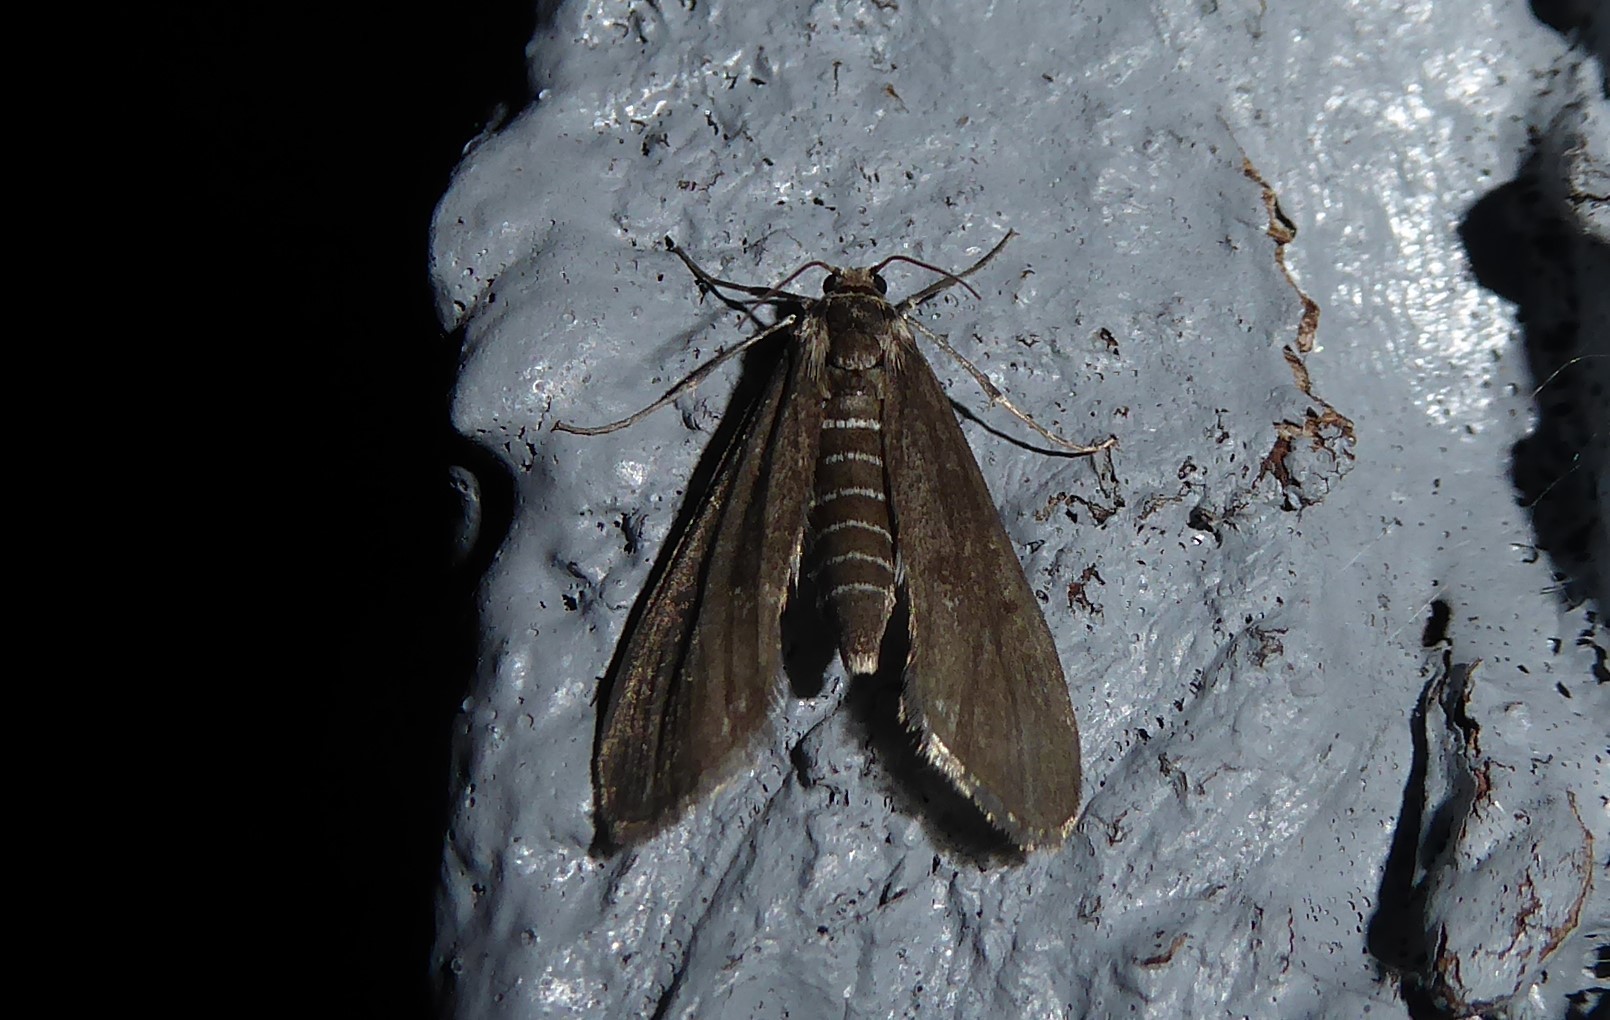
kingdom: Animalia
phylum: Arthropoda
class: Insecta
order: Lepidoptera
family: Crambidae
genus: Hygraula
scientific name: Hygraula nitens
